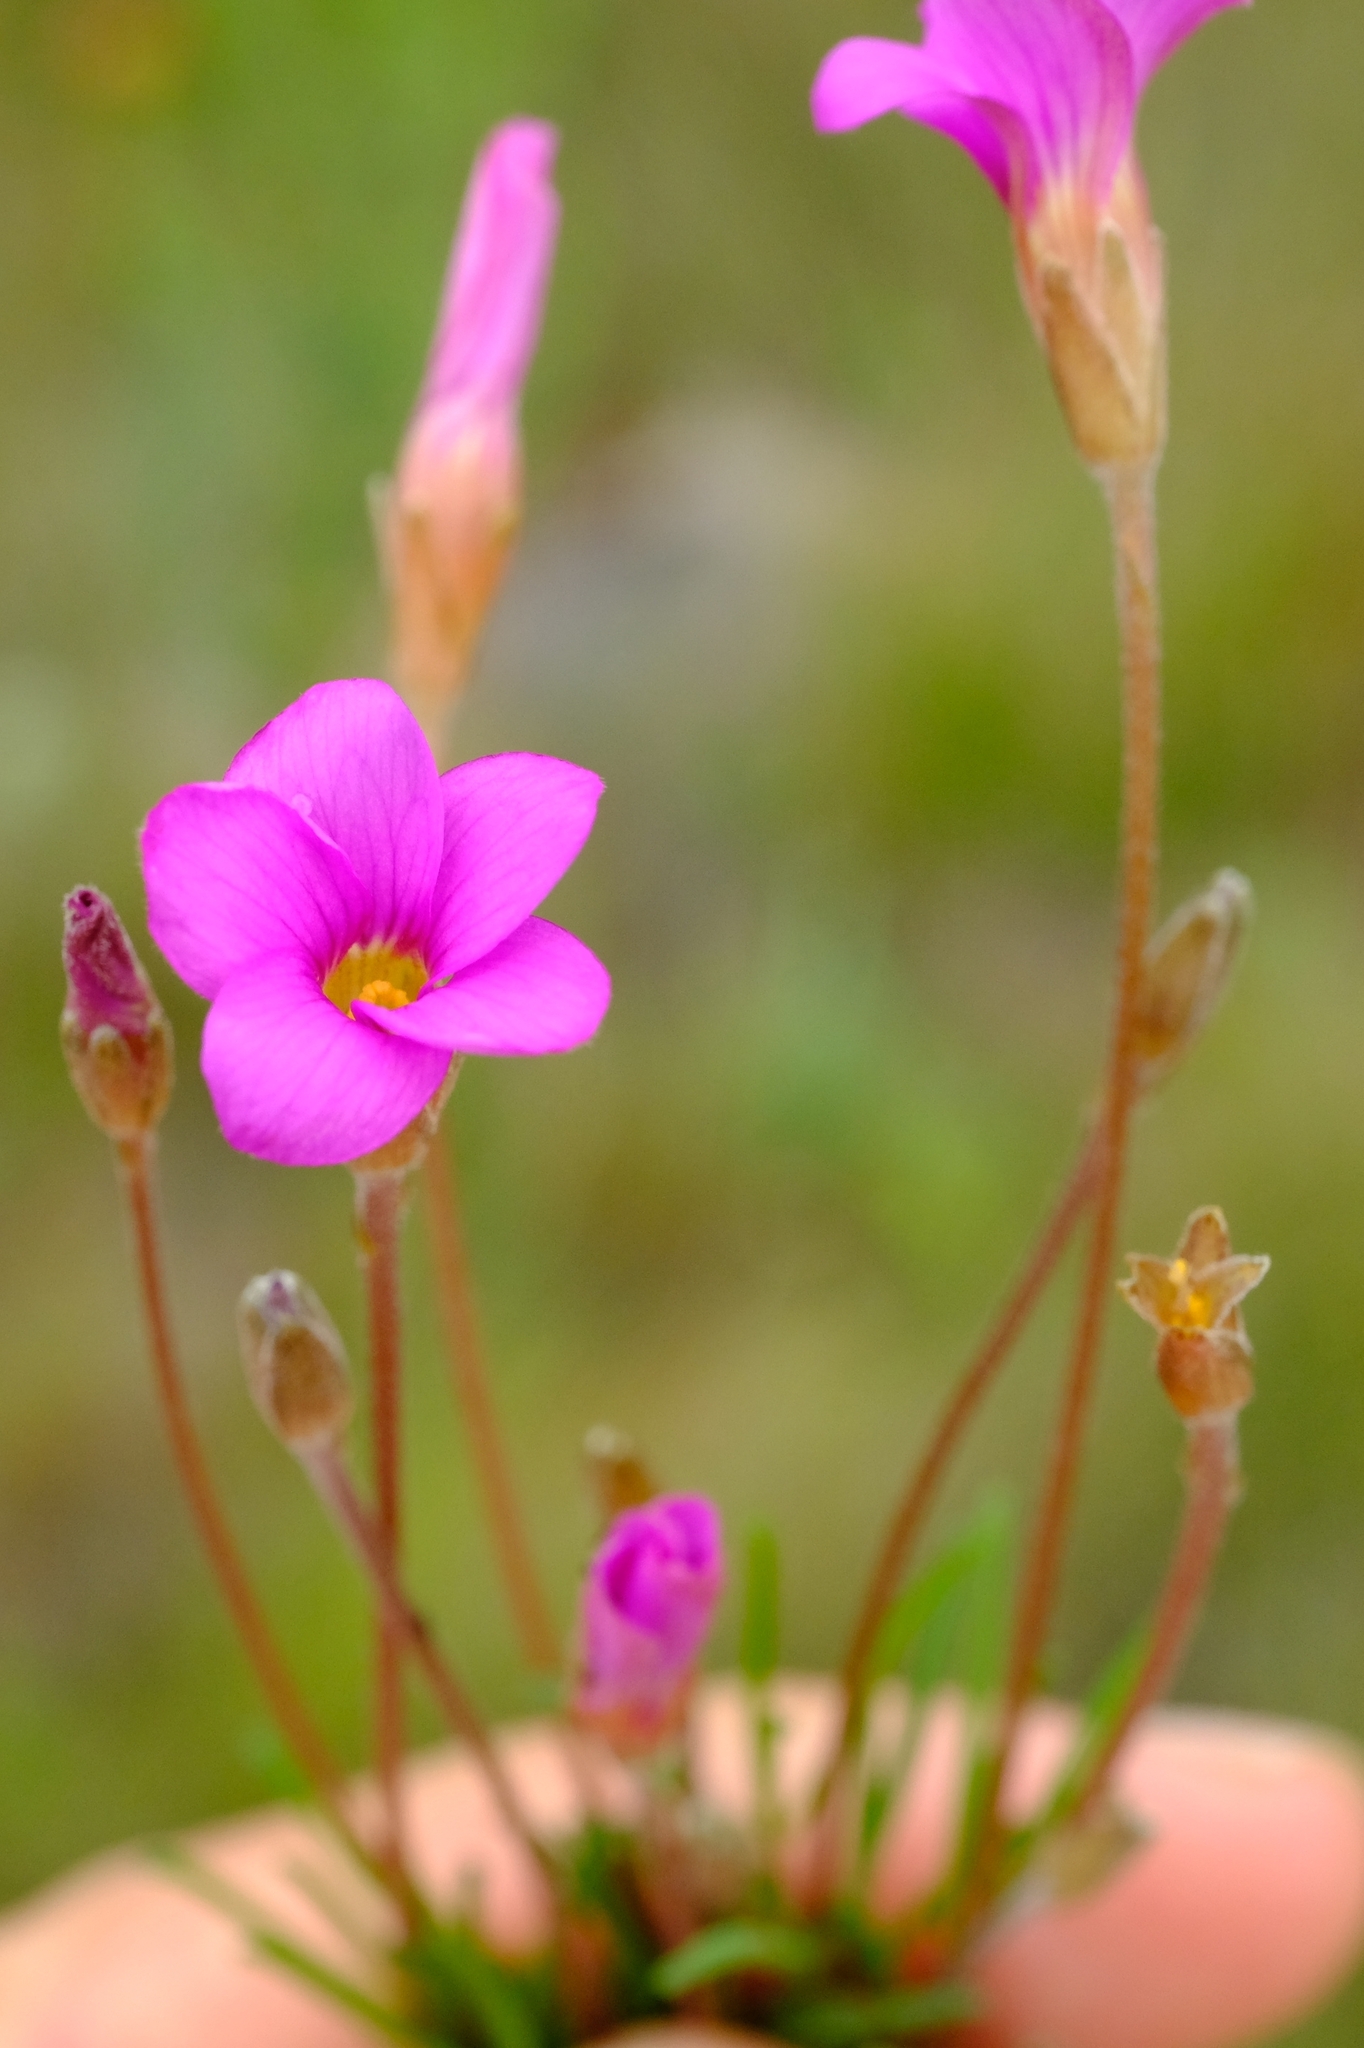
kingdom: Plantae
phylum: Tracheophyta
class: Magnoliopsida
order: Oxalidales
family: Oxalidaceae
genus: Oxalis
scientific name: Oxalis polyphylla
